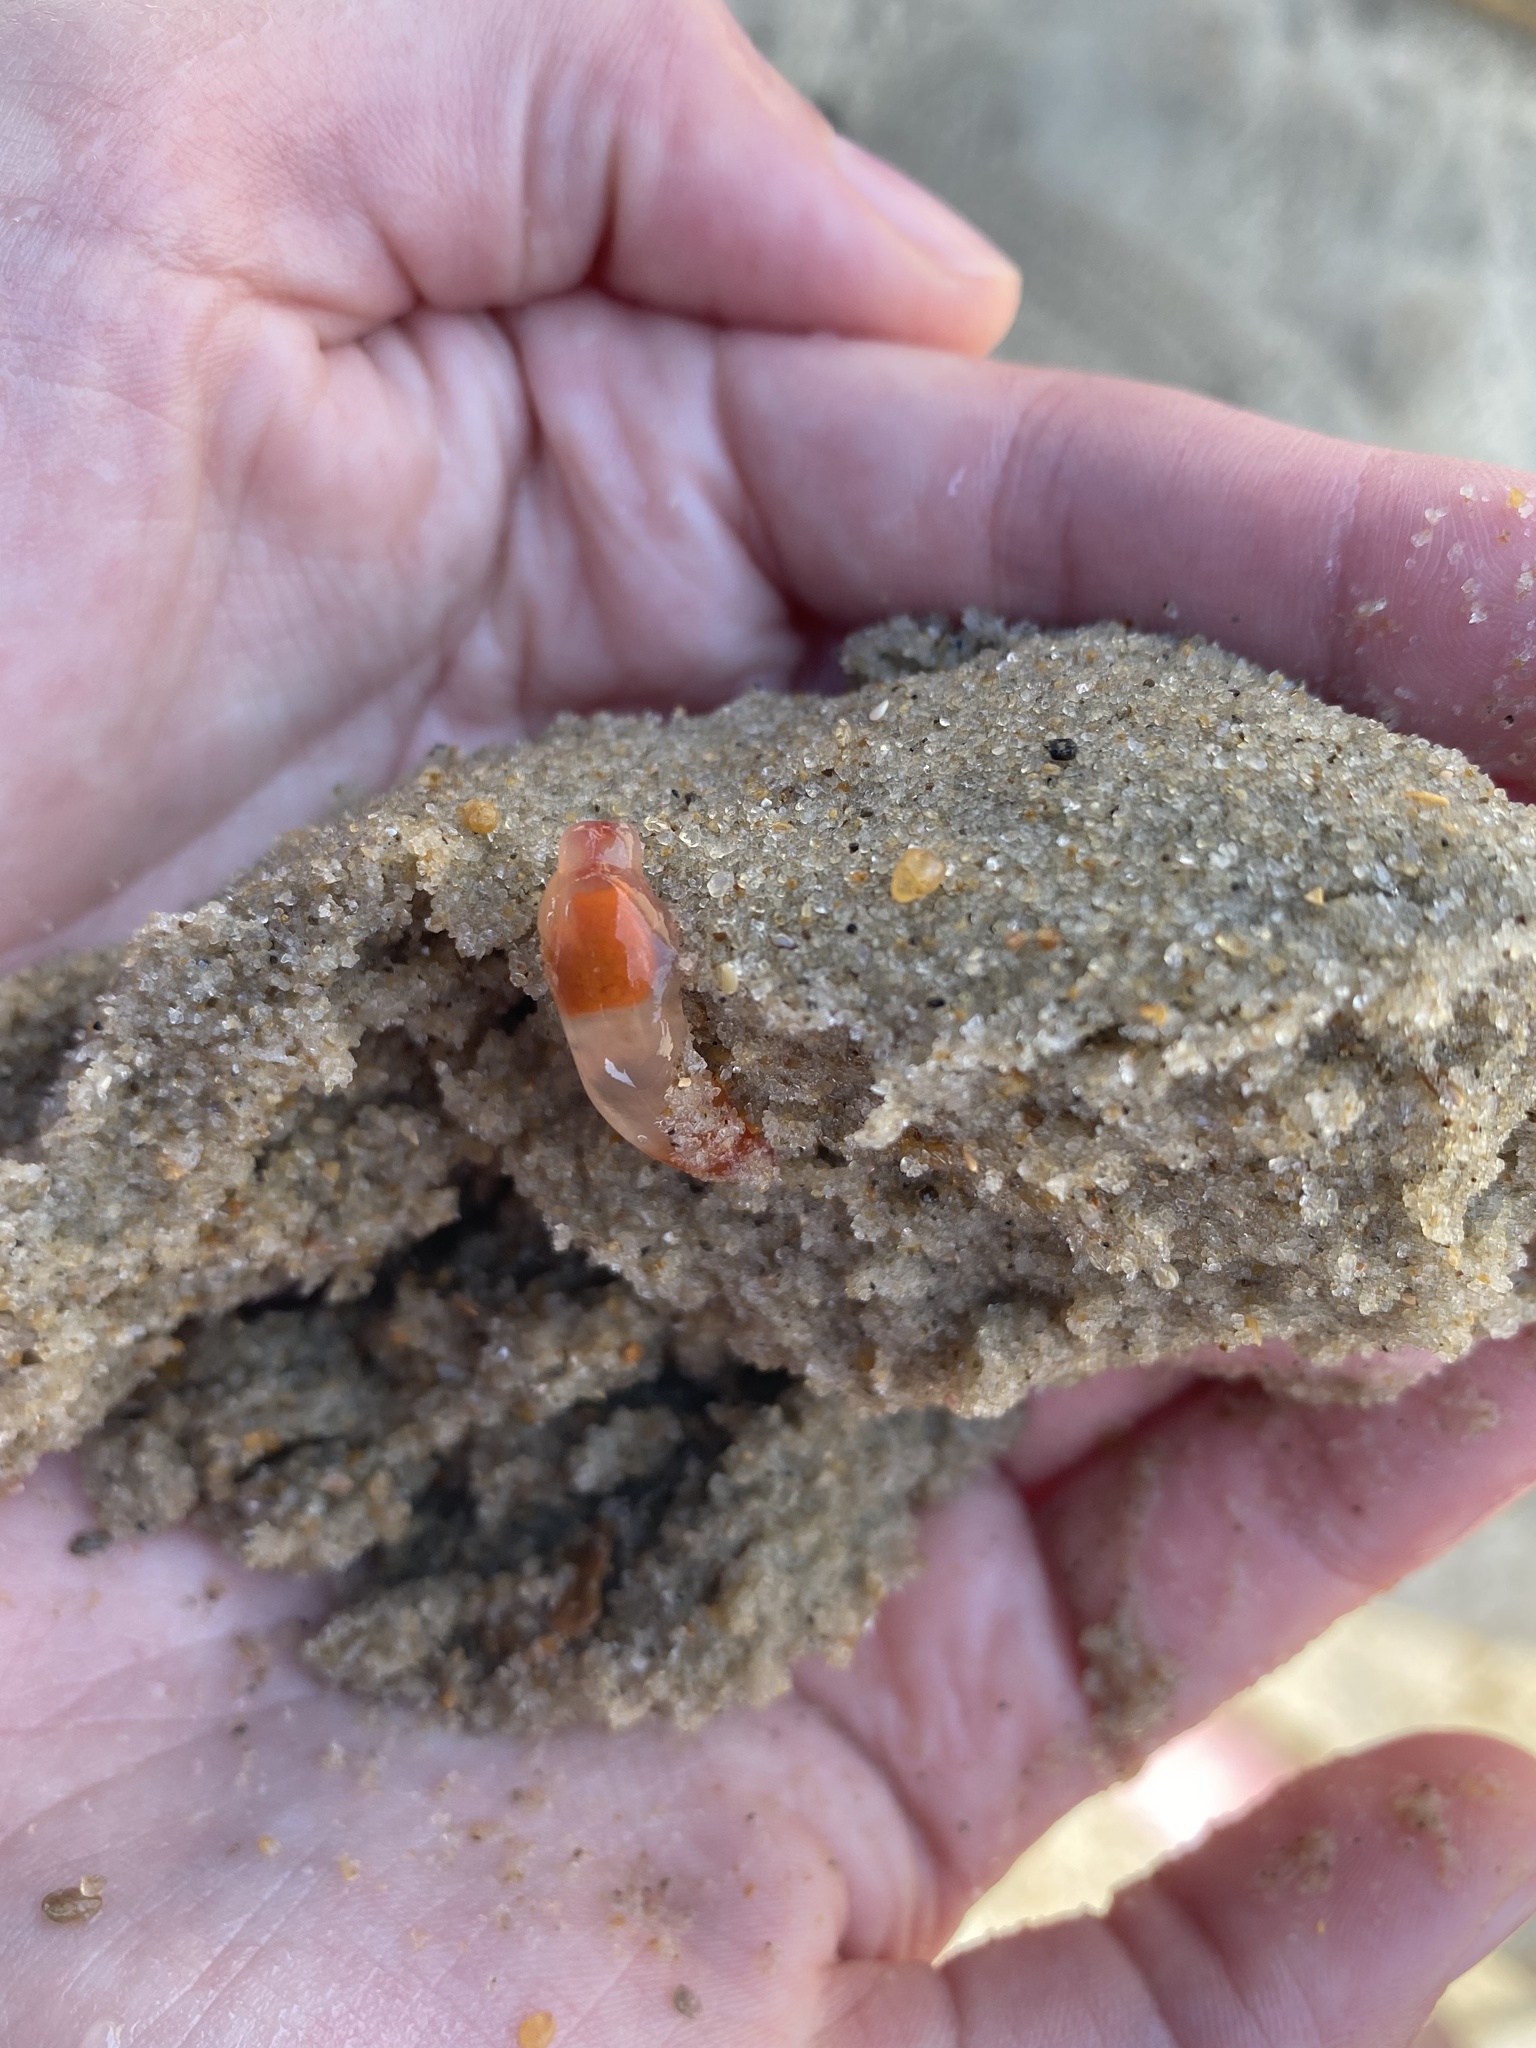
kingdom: Animalia
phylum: Mollusca
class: Gastropoda
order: Pteropoda
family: Clionidae
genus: Clione
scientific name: Clione limacina
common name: Common clione
